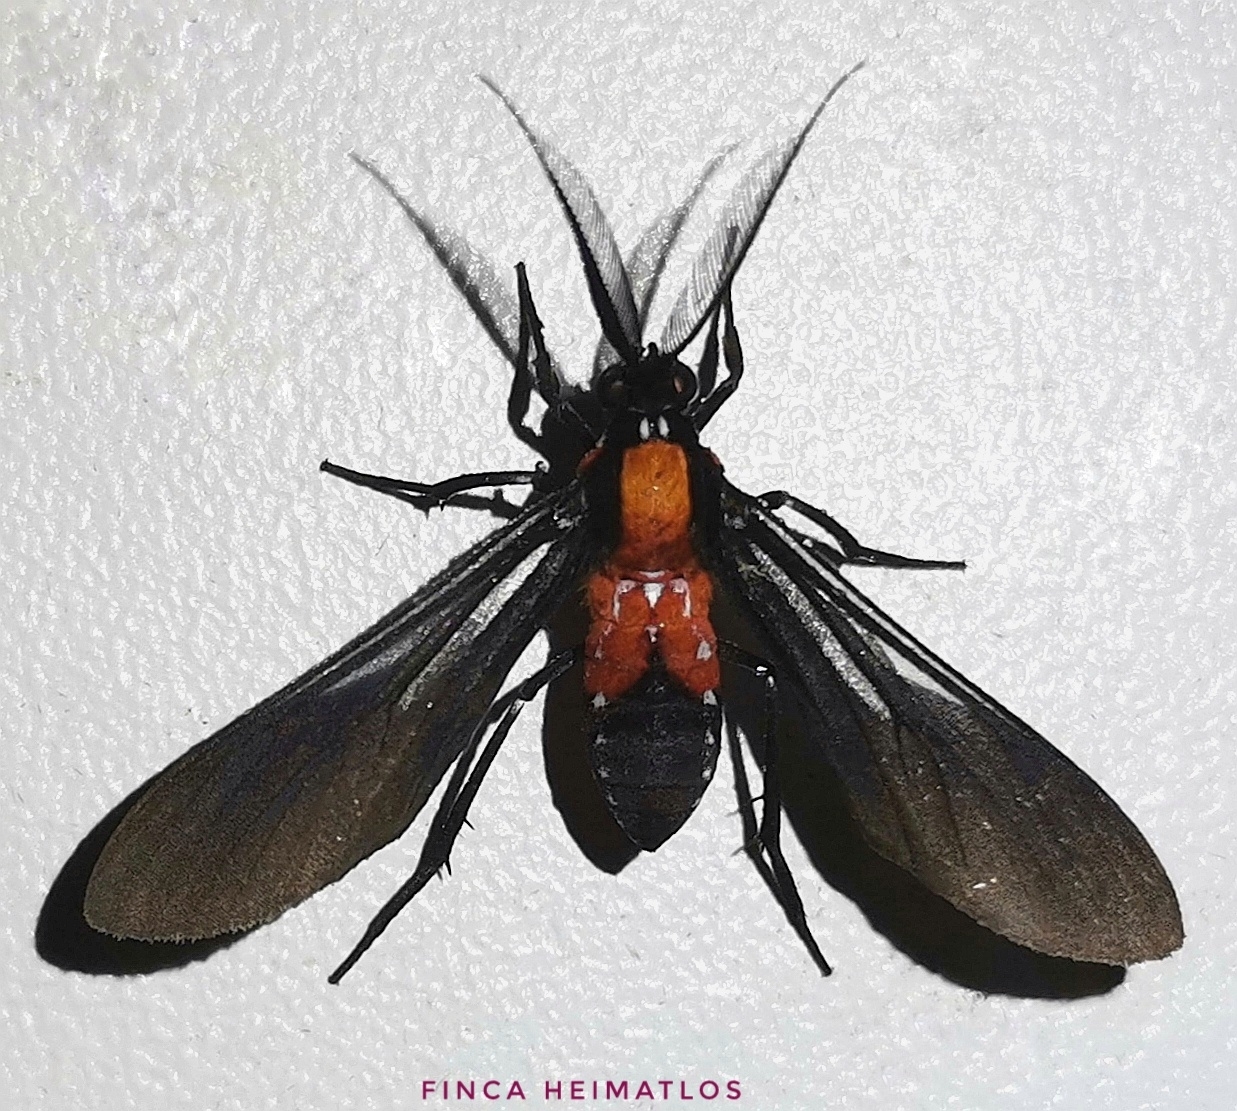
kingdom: Animalia
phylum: Arthropoda
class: Insecta
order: Lepidoptera
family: Erebidae
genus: Saurita
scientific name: Saurita vindonissa
